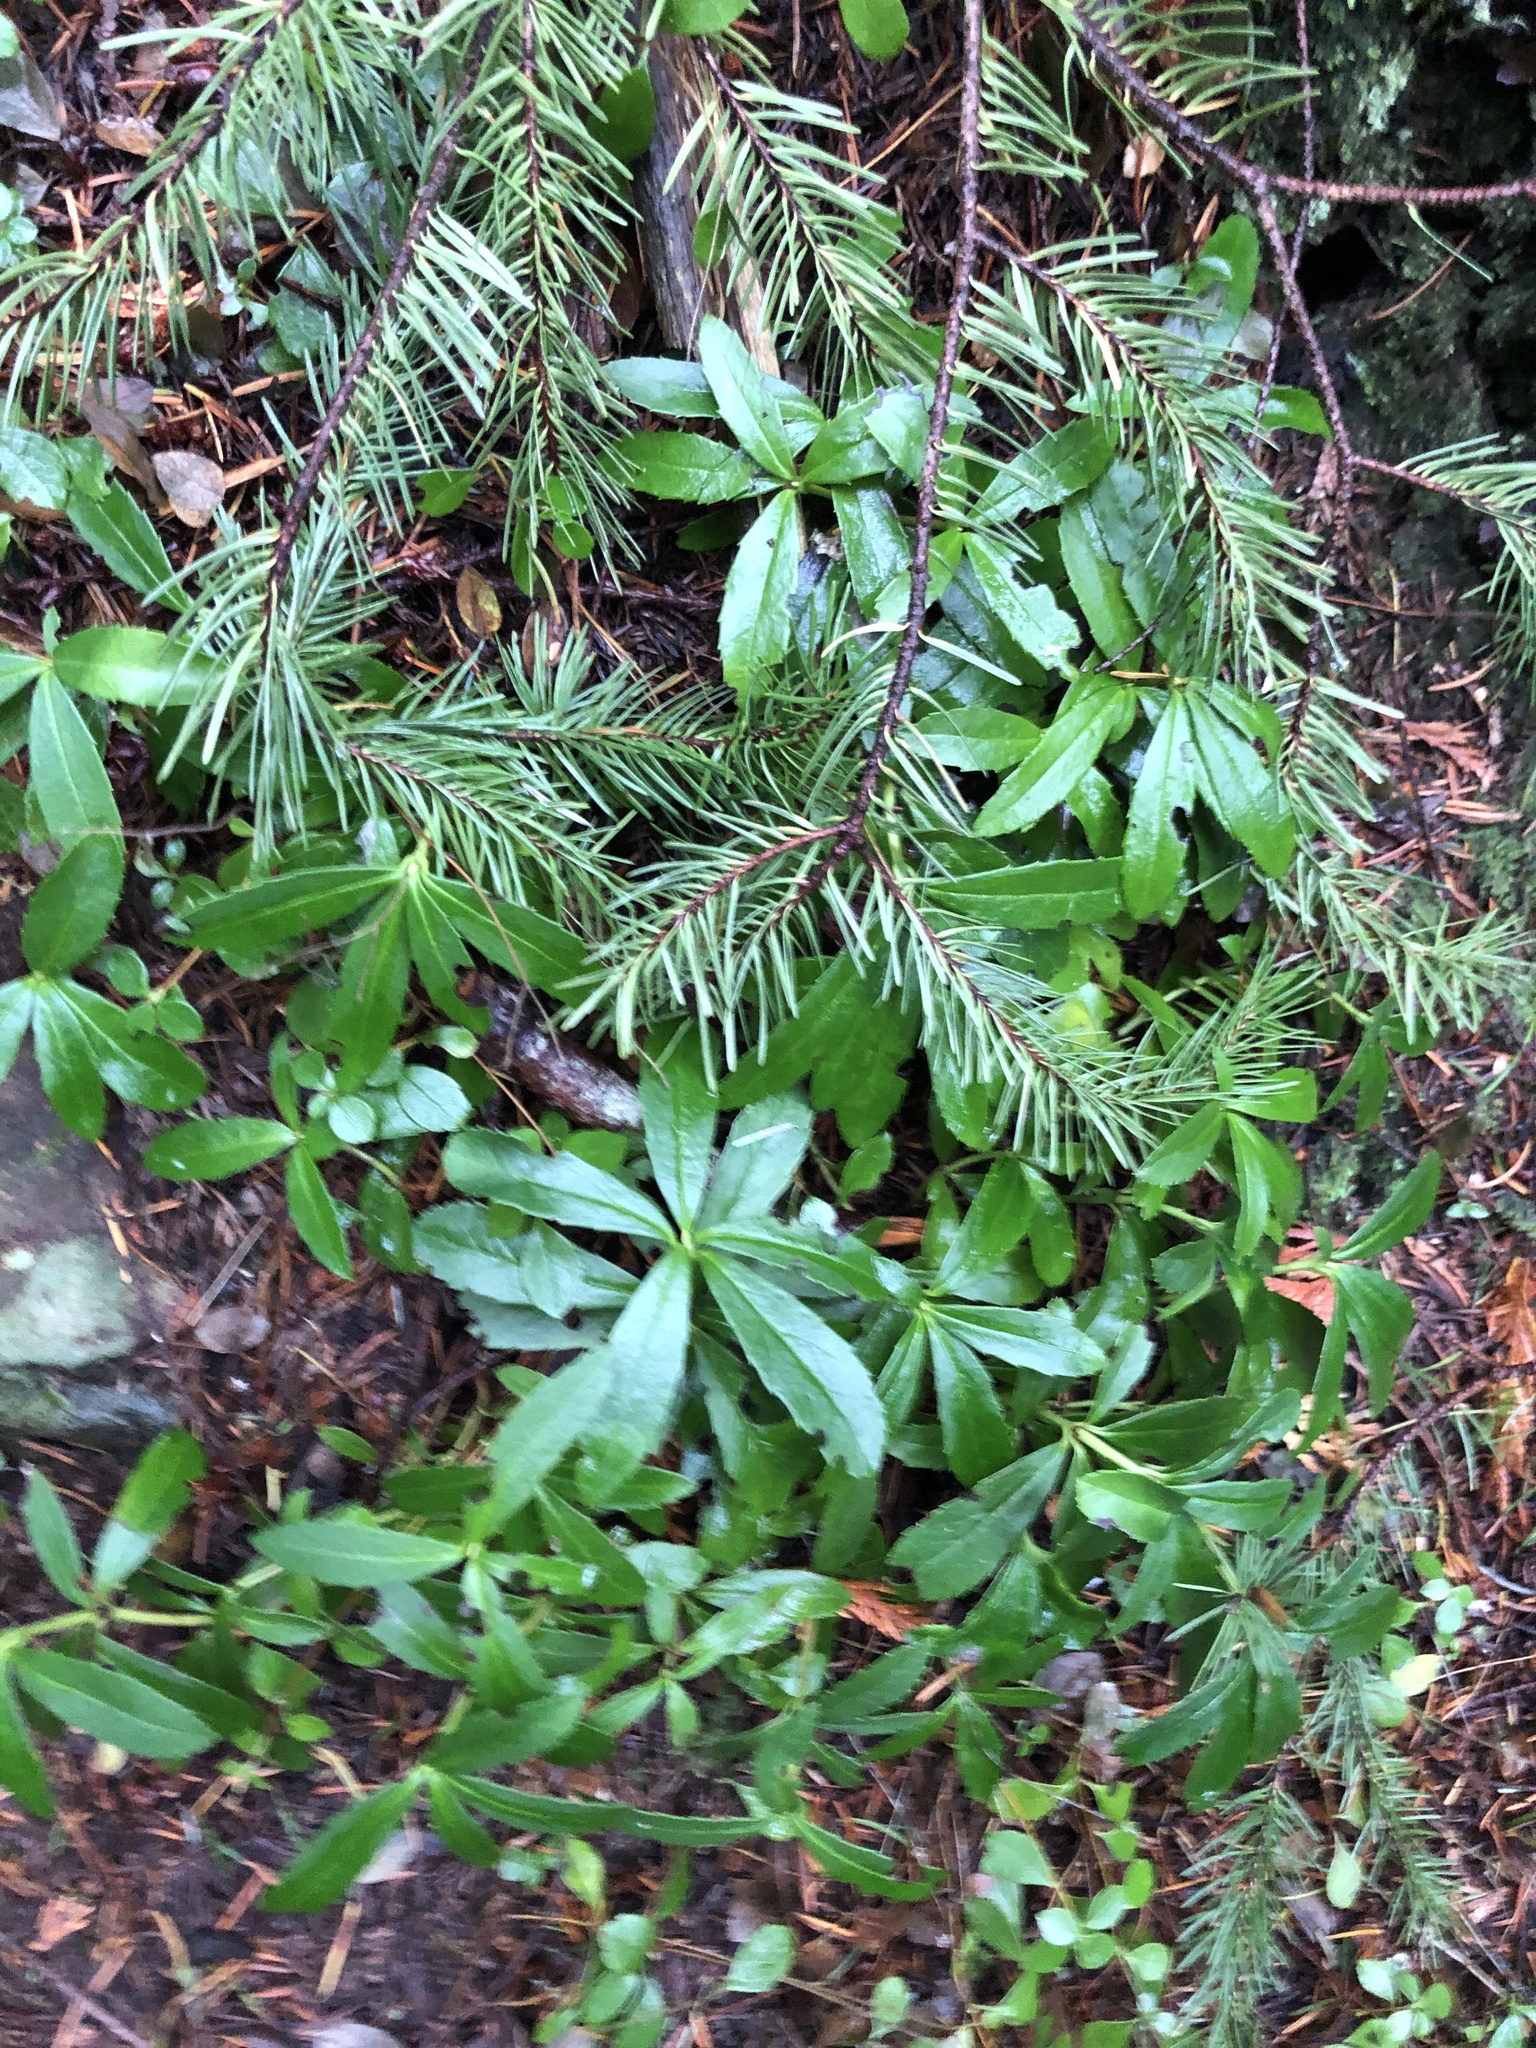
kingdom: Plantae
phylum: Tracheophyta
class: Magnoliopsida
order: Ericales
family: Ericaceae
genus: Chimaphila
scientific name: Chimaphila umbellata
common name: Pipsissewa
